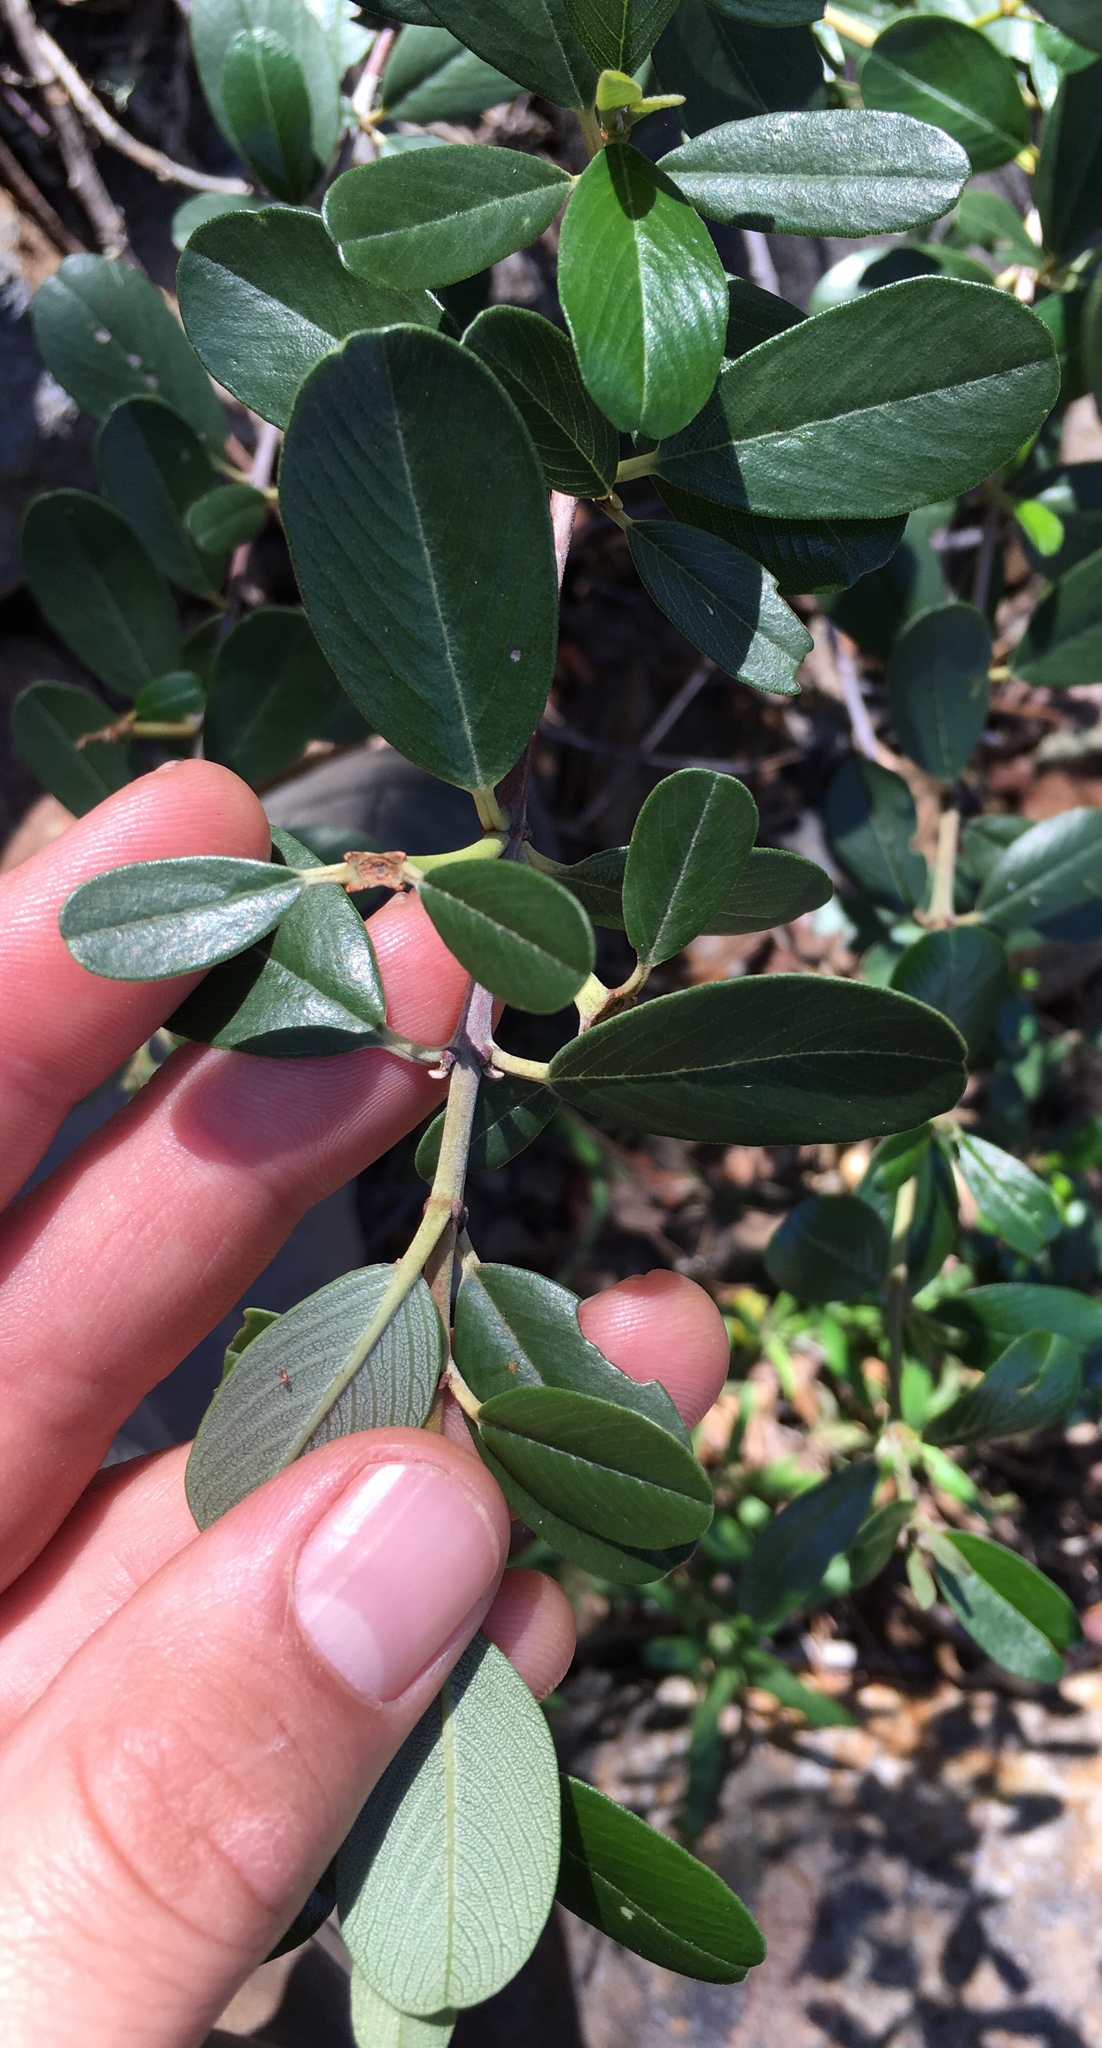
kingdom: Plantae
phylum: Tracheophyta
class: Magnoliopsida
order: Rosales
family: Rhamnaceae
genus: Ceanothus
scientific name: Ceanothus megacarpus
